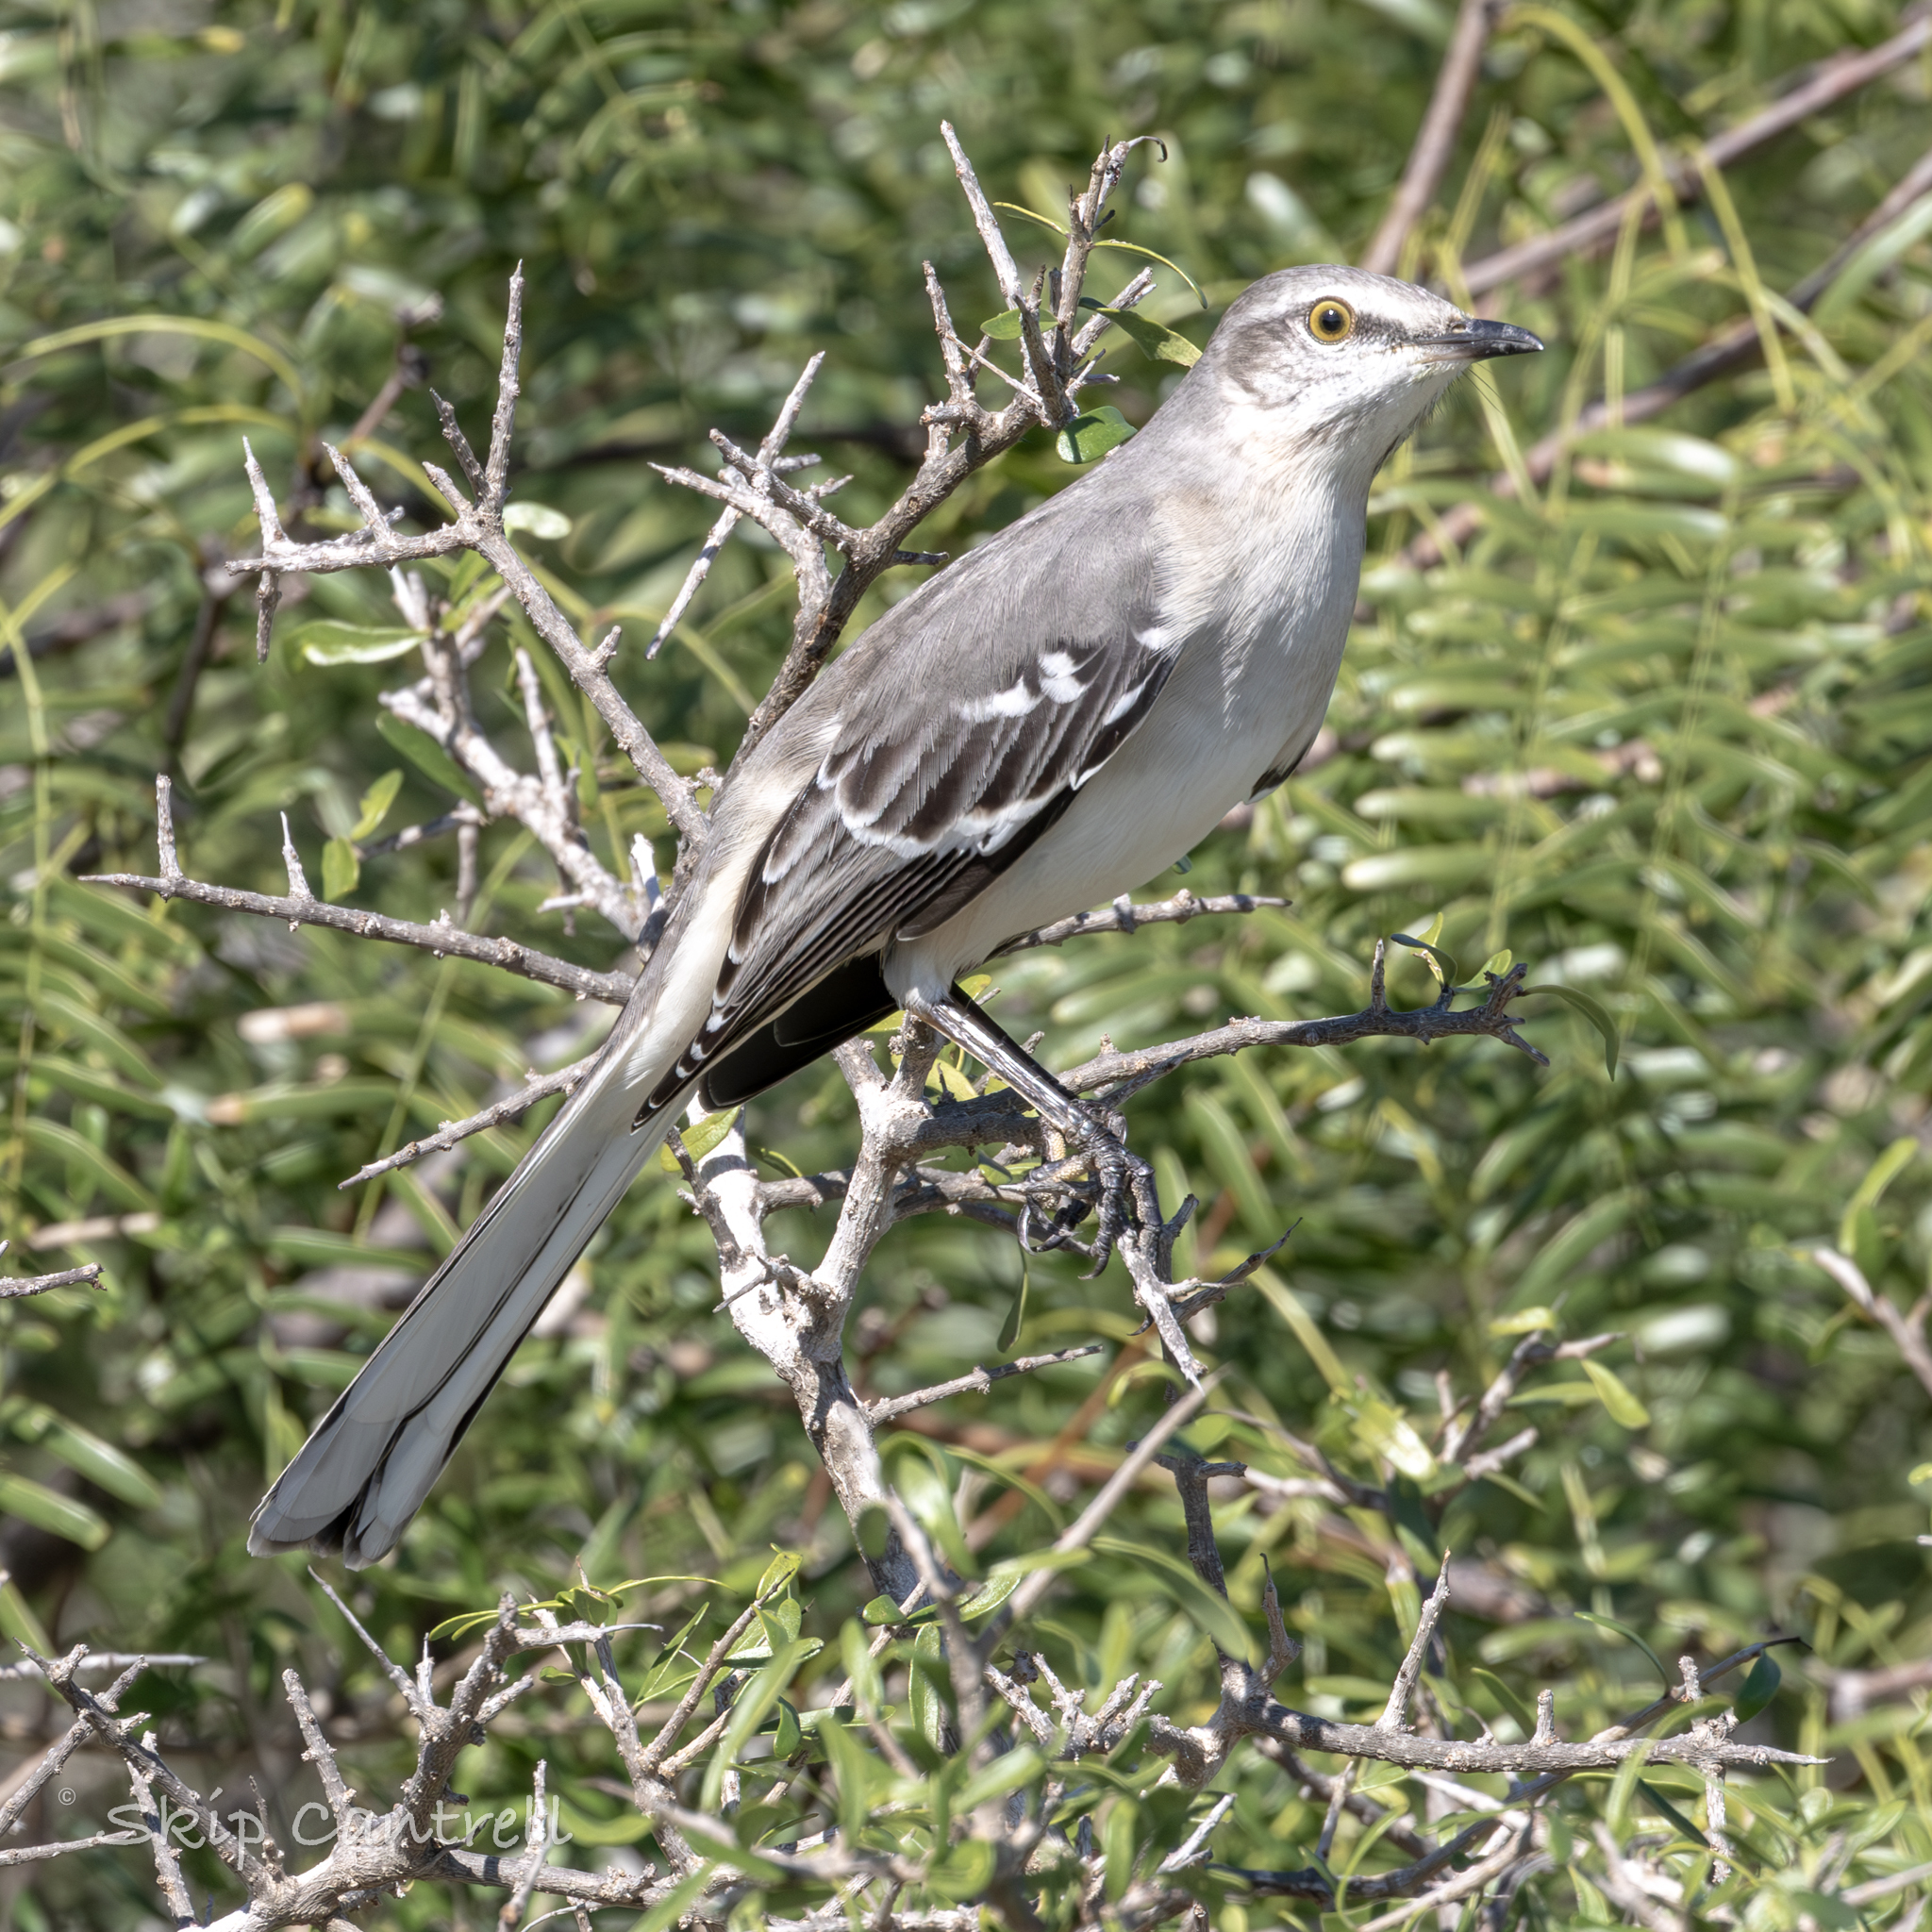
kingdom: Animalia
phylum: Chordata
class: Aves
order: Passeriformes
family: Mimidae
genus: Mimus
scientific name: Mimus polyglottos
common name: Northern mockingbird
